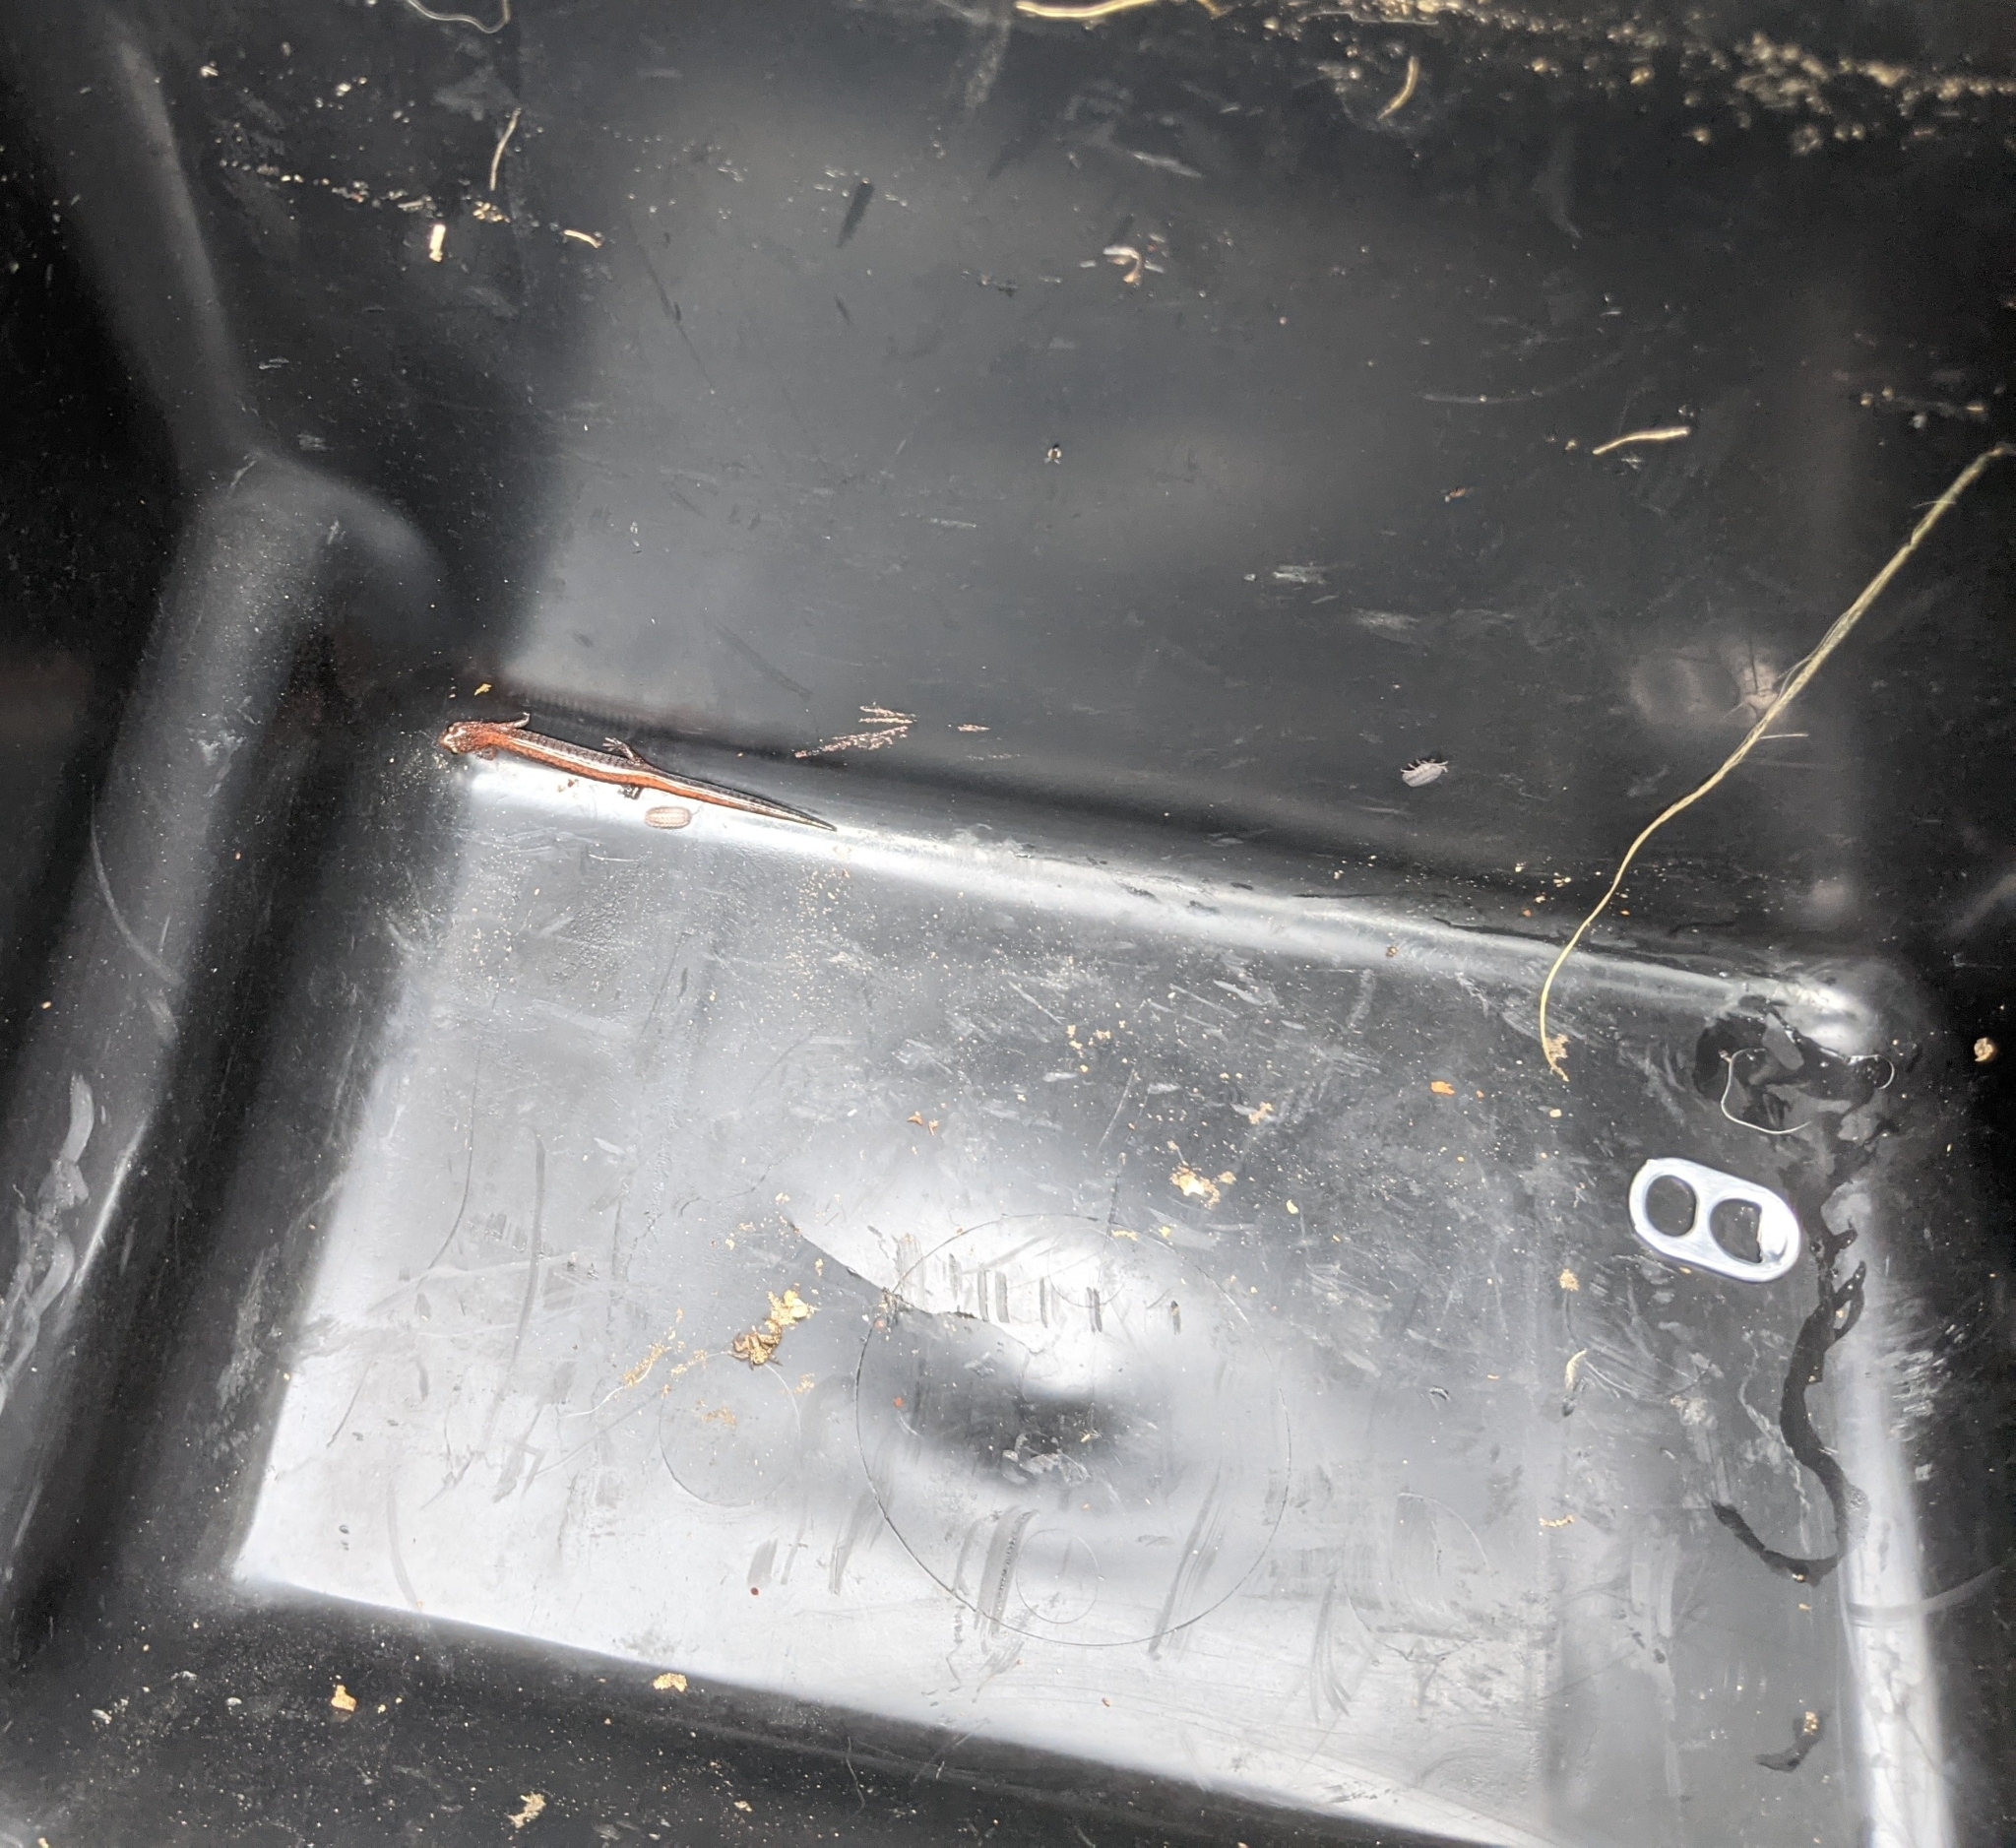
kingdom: Animalia
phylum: Chordata
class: Amphibia
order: Caudata
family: Plethodontidae
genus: Plethodon
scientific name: Plethodon cinereus
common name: Redback salamander
